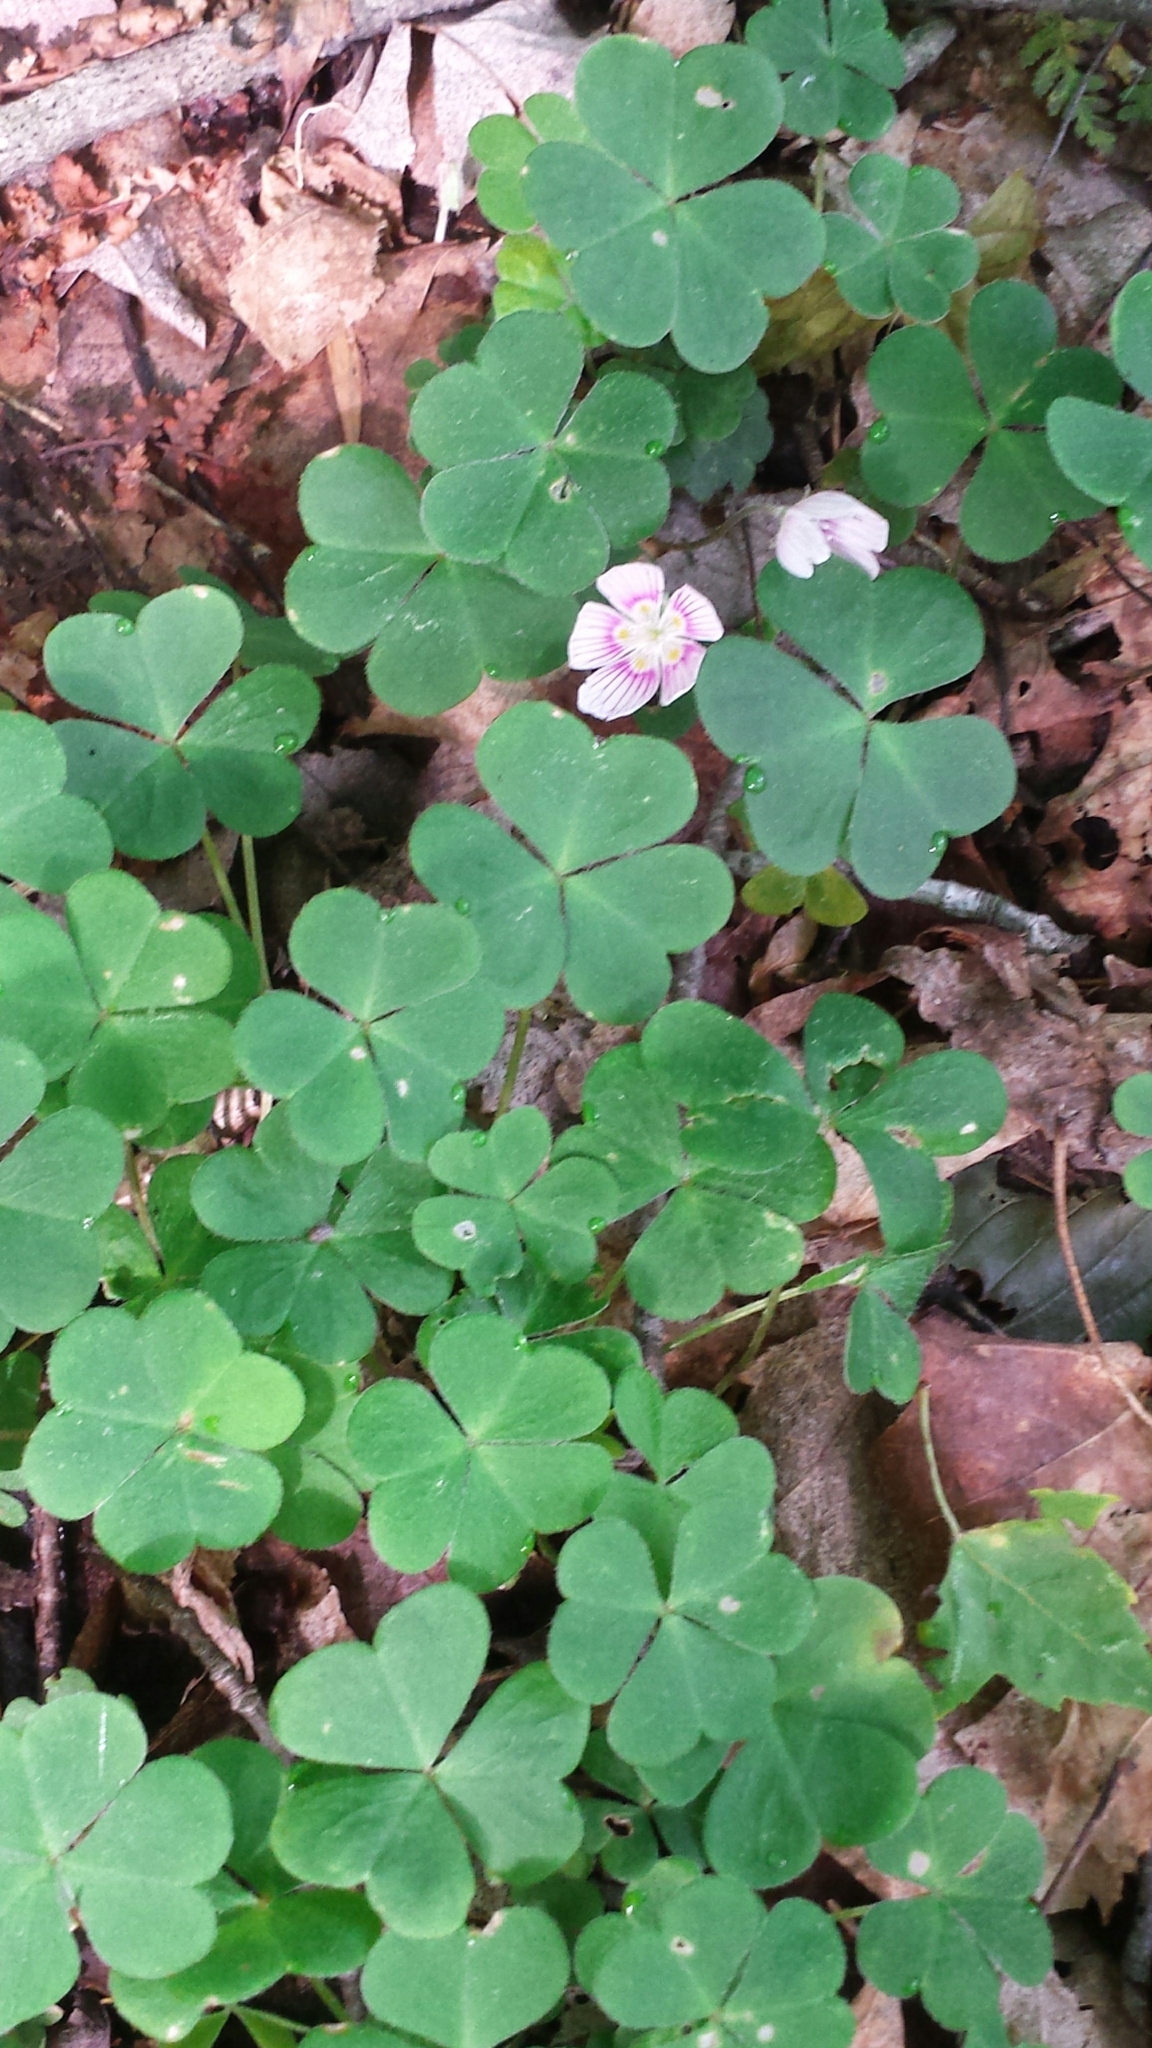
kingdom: Plantae
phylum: Tracheophyta
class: Magnoliopsida
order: Oxalidales
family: Oxalidaceae
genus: Oxalis
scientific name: Oxalis montana
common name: American wood-sorrel
